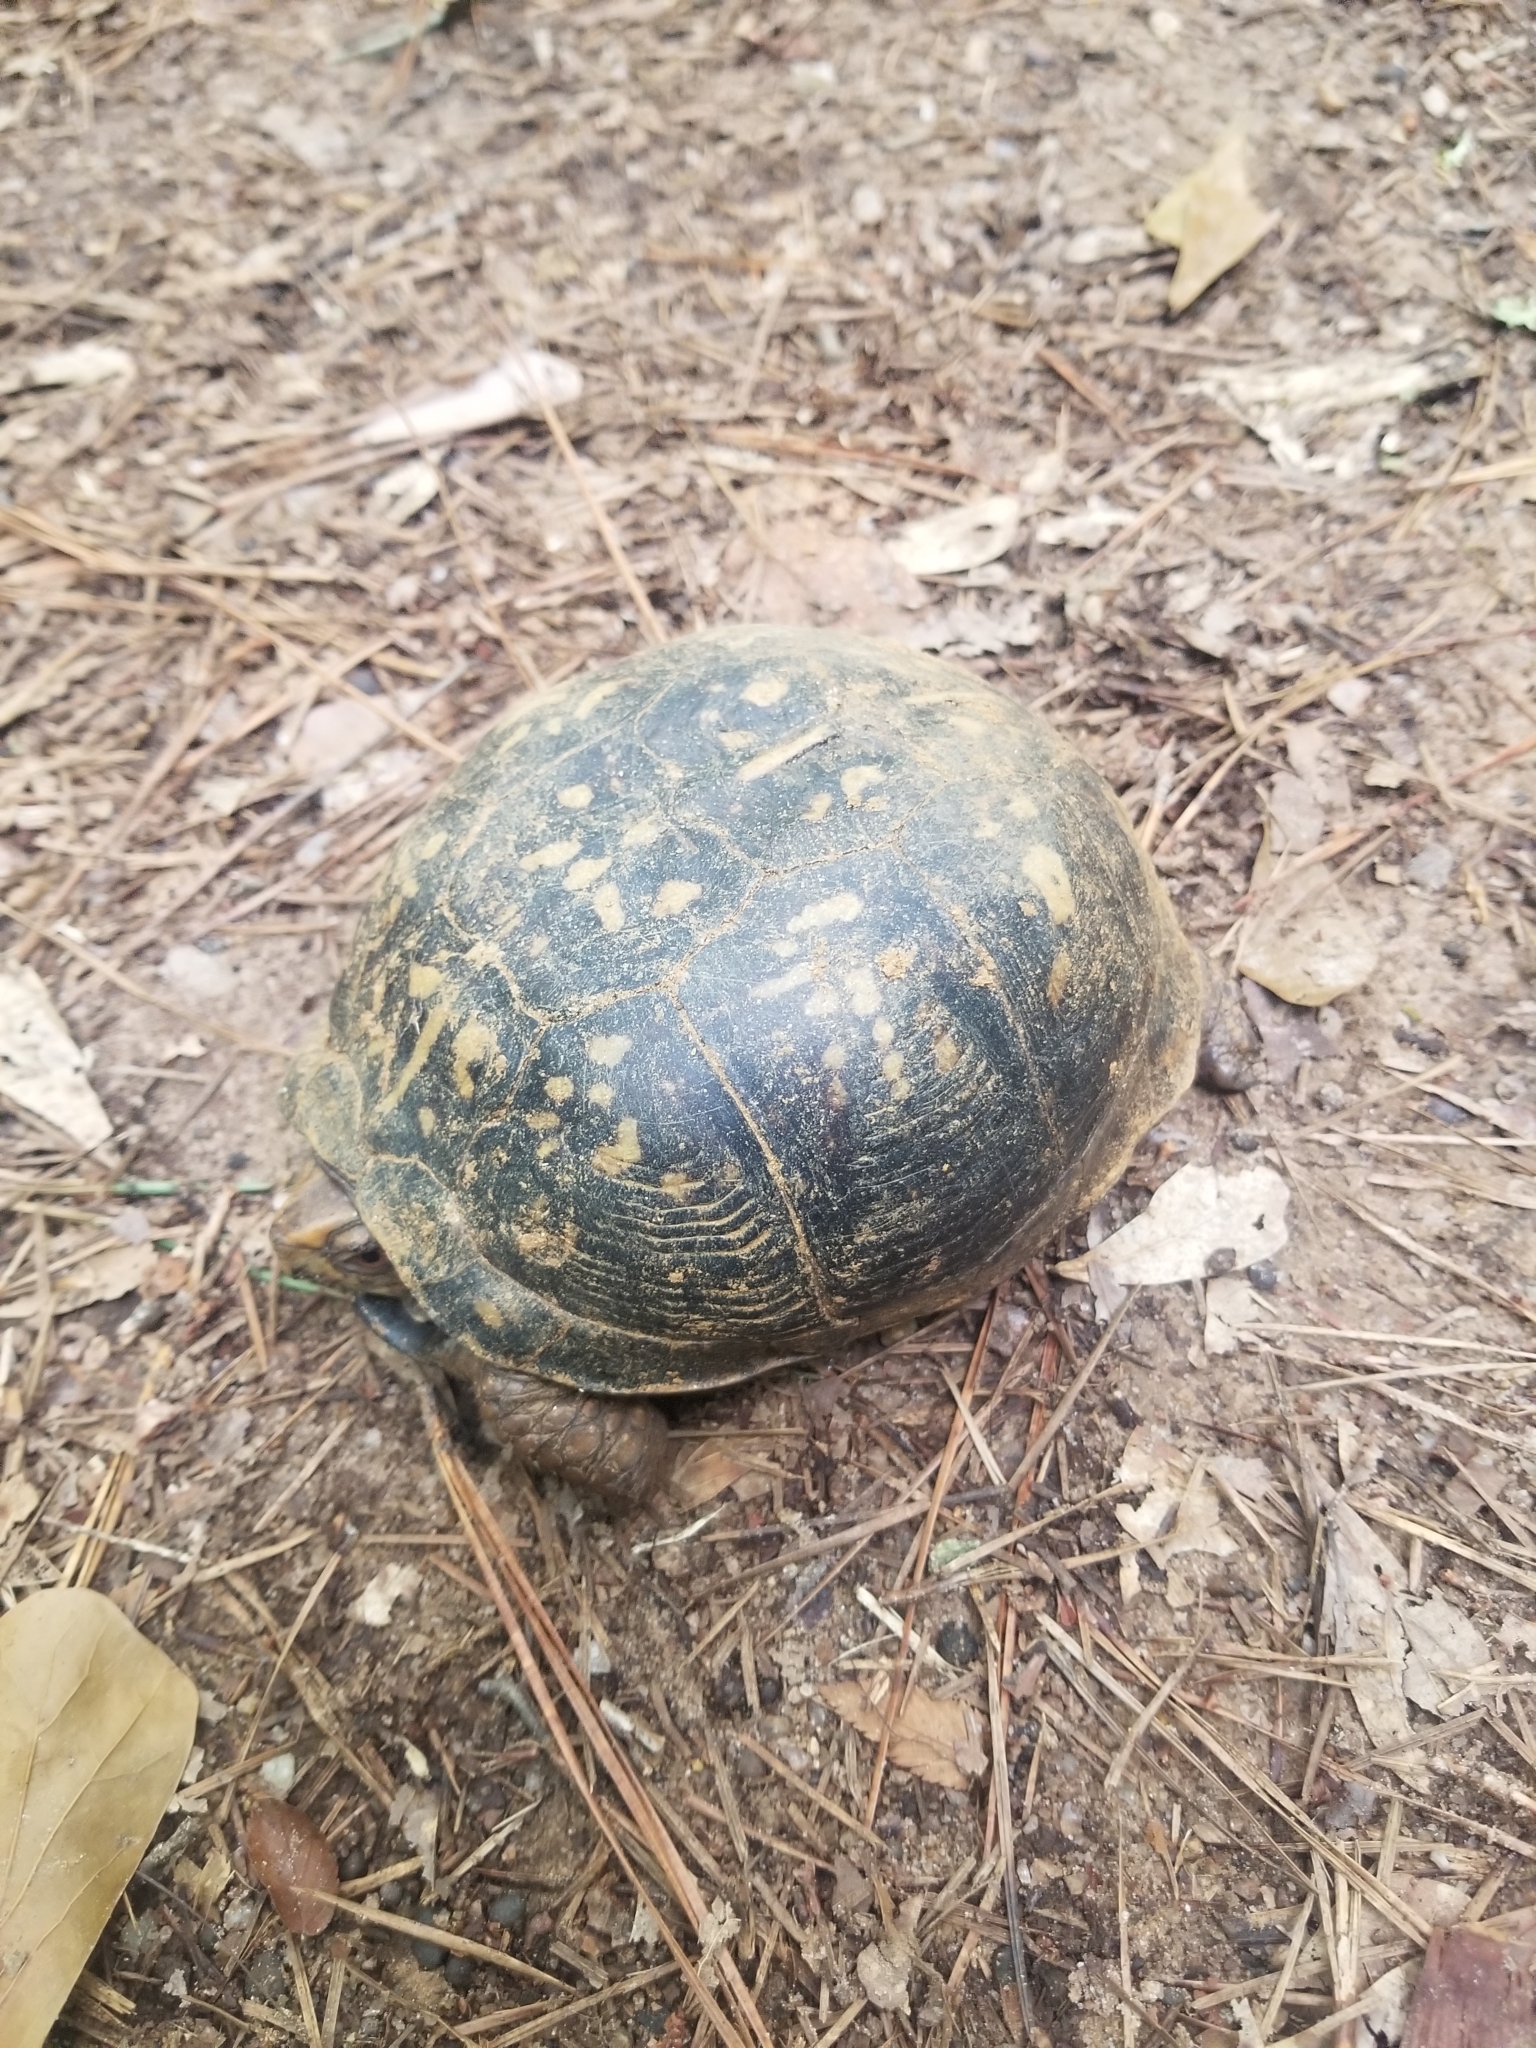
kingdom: Animalia
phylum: Chordata
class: Testudines
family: Emydidae
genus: Terrapene
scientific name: Terrapene carolina
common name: Common box turtle
